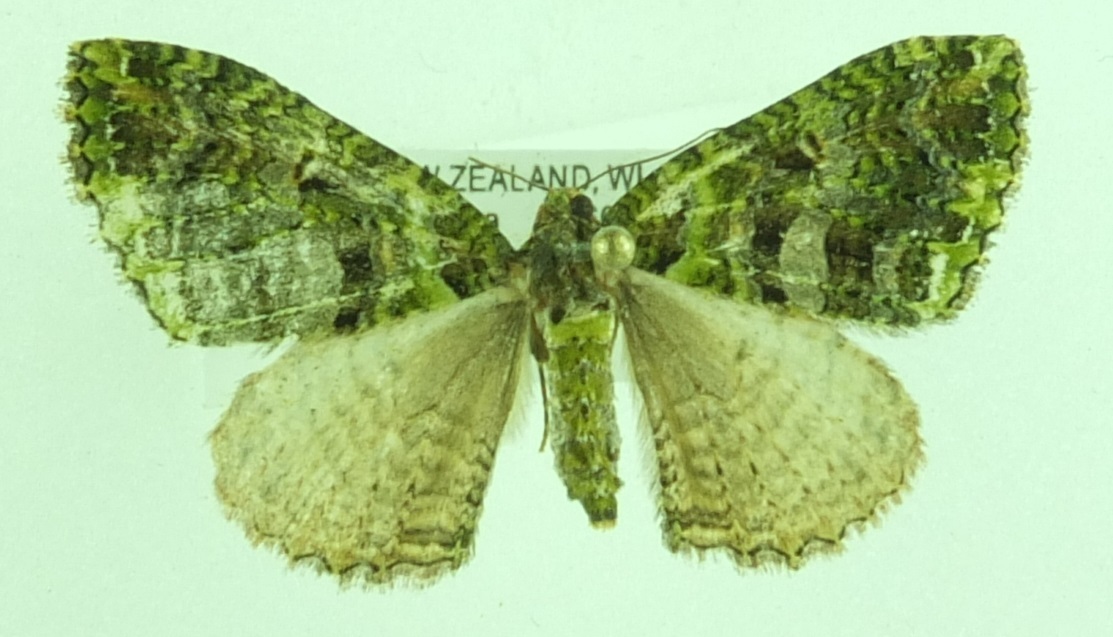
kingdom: Animalia
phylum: Arthropoda
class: Insecta
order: Lepidoptera
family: Geometridae
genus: Austrocidaria
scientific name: Austrocidaria similata
